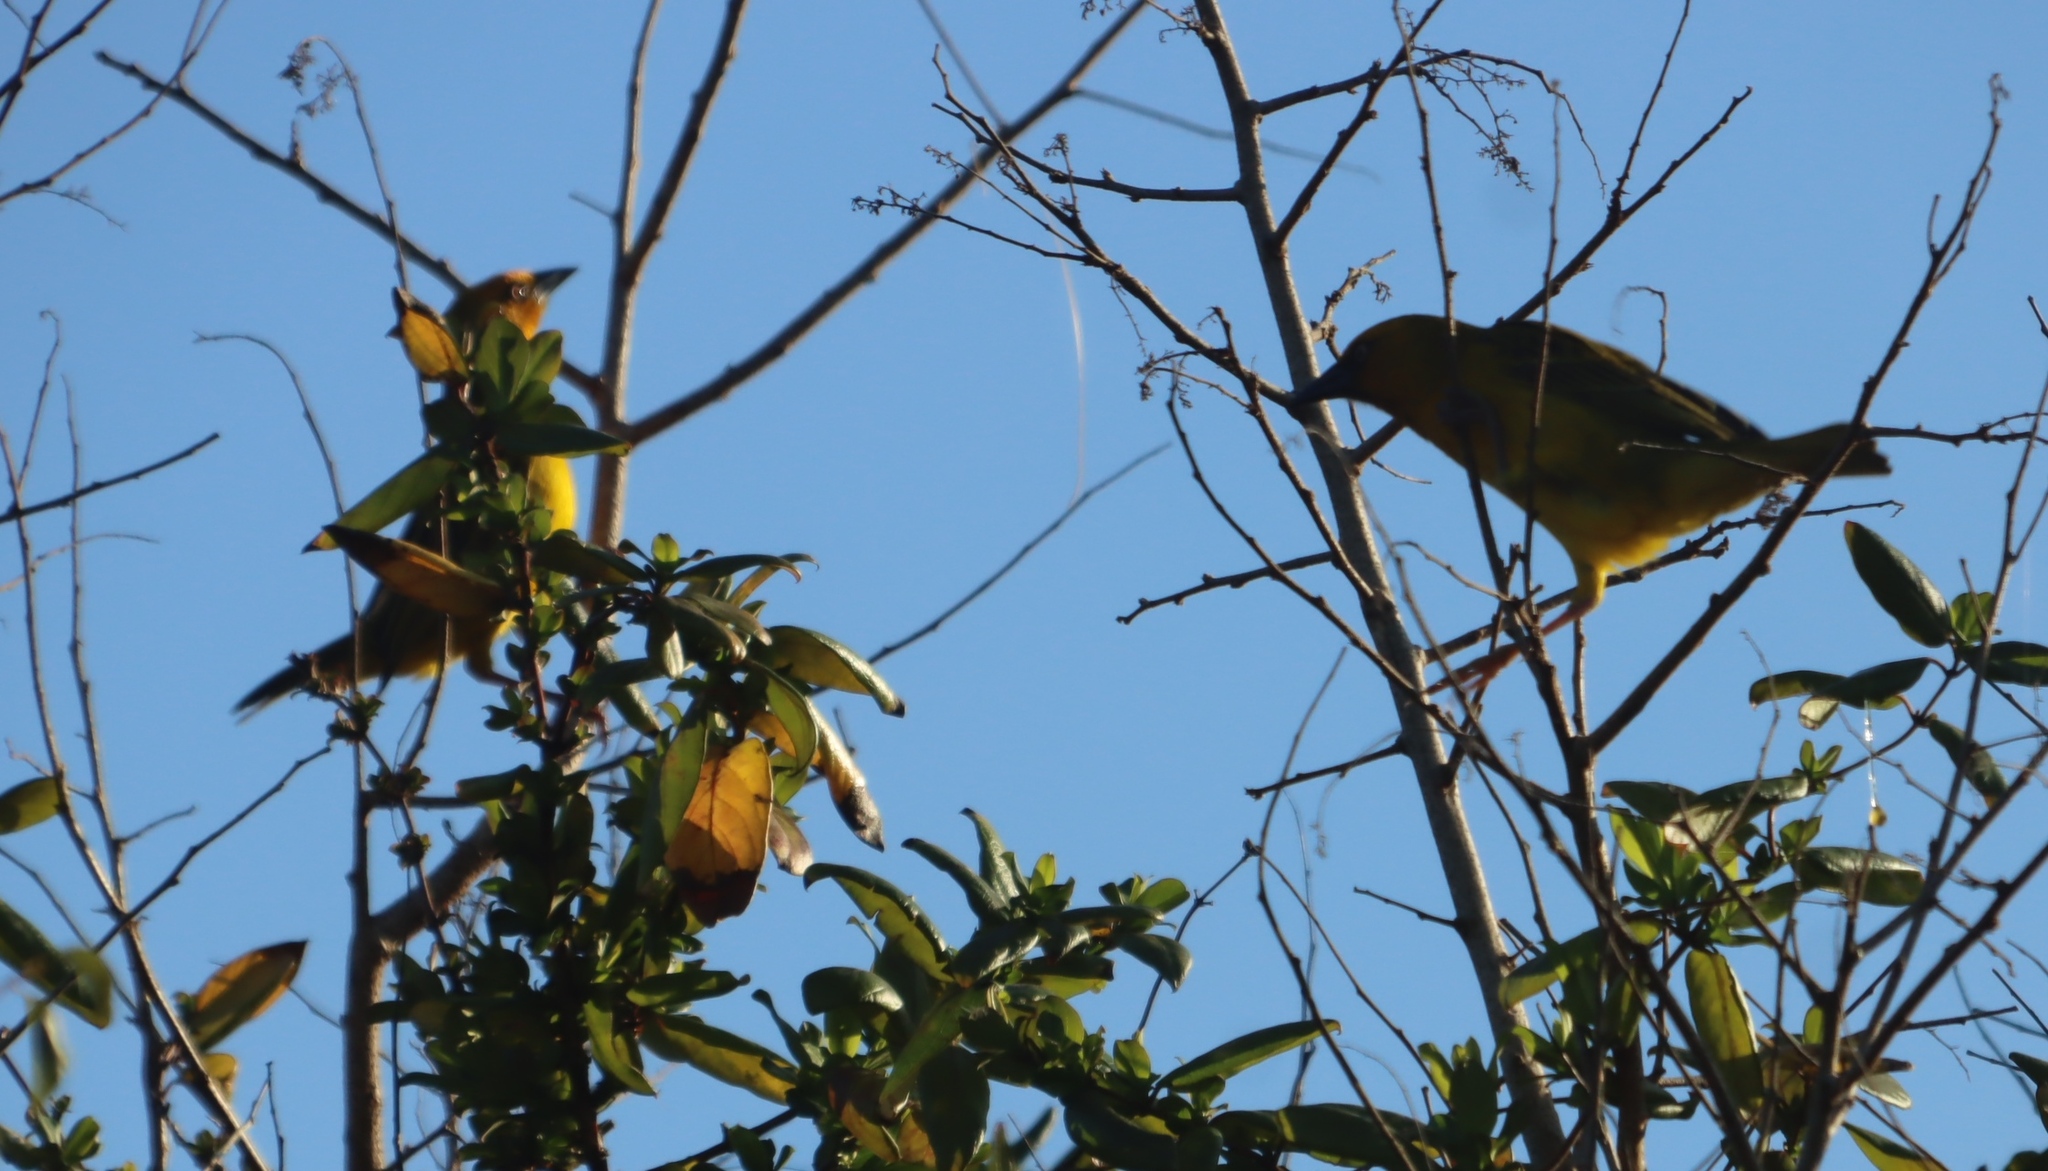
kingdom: Animalia
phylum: Chordata
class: Aves
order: Passeriformes
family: Ploceidae
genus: Ploceus
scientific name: Ploceus capensis
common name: Cape weaver
